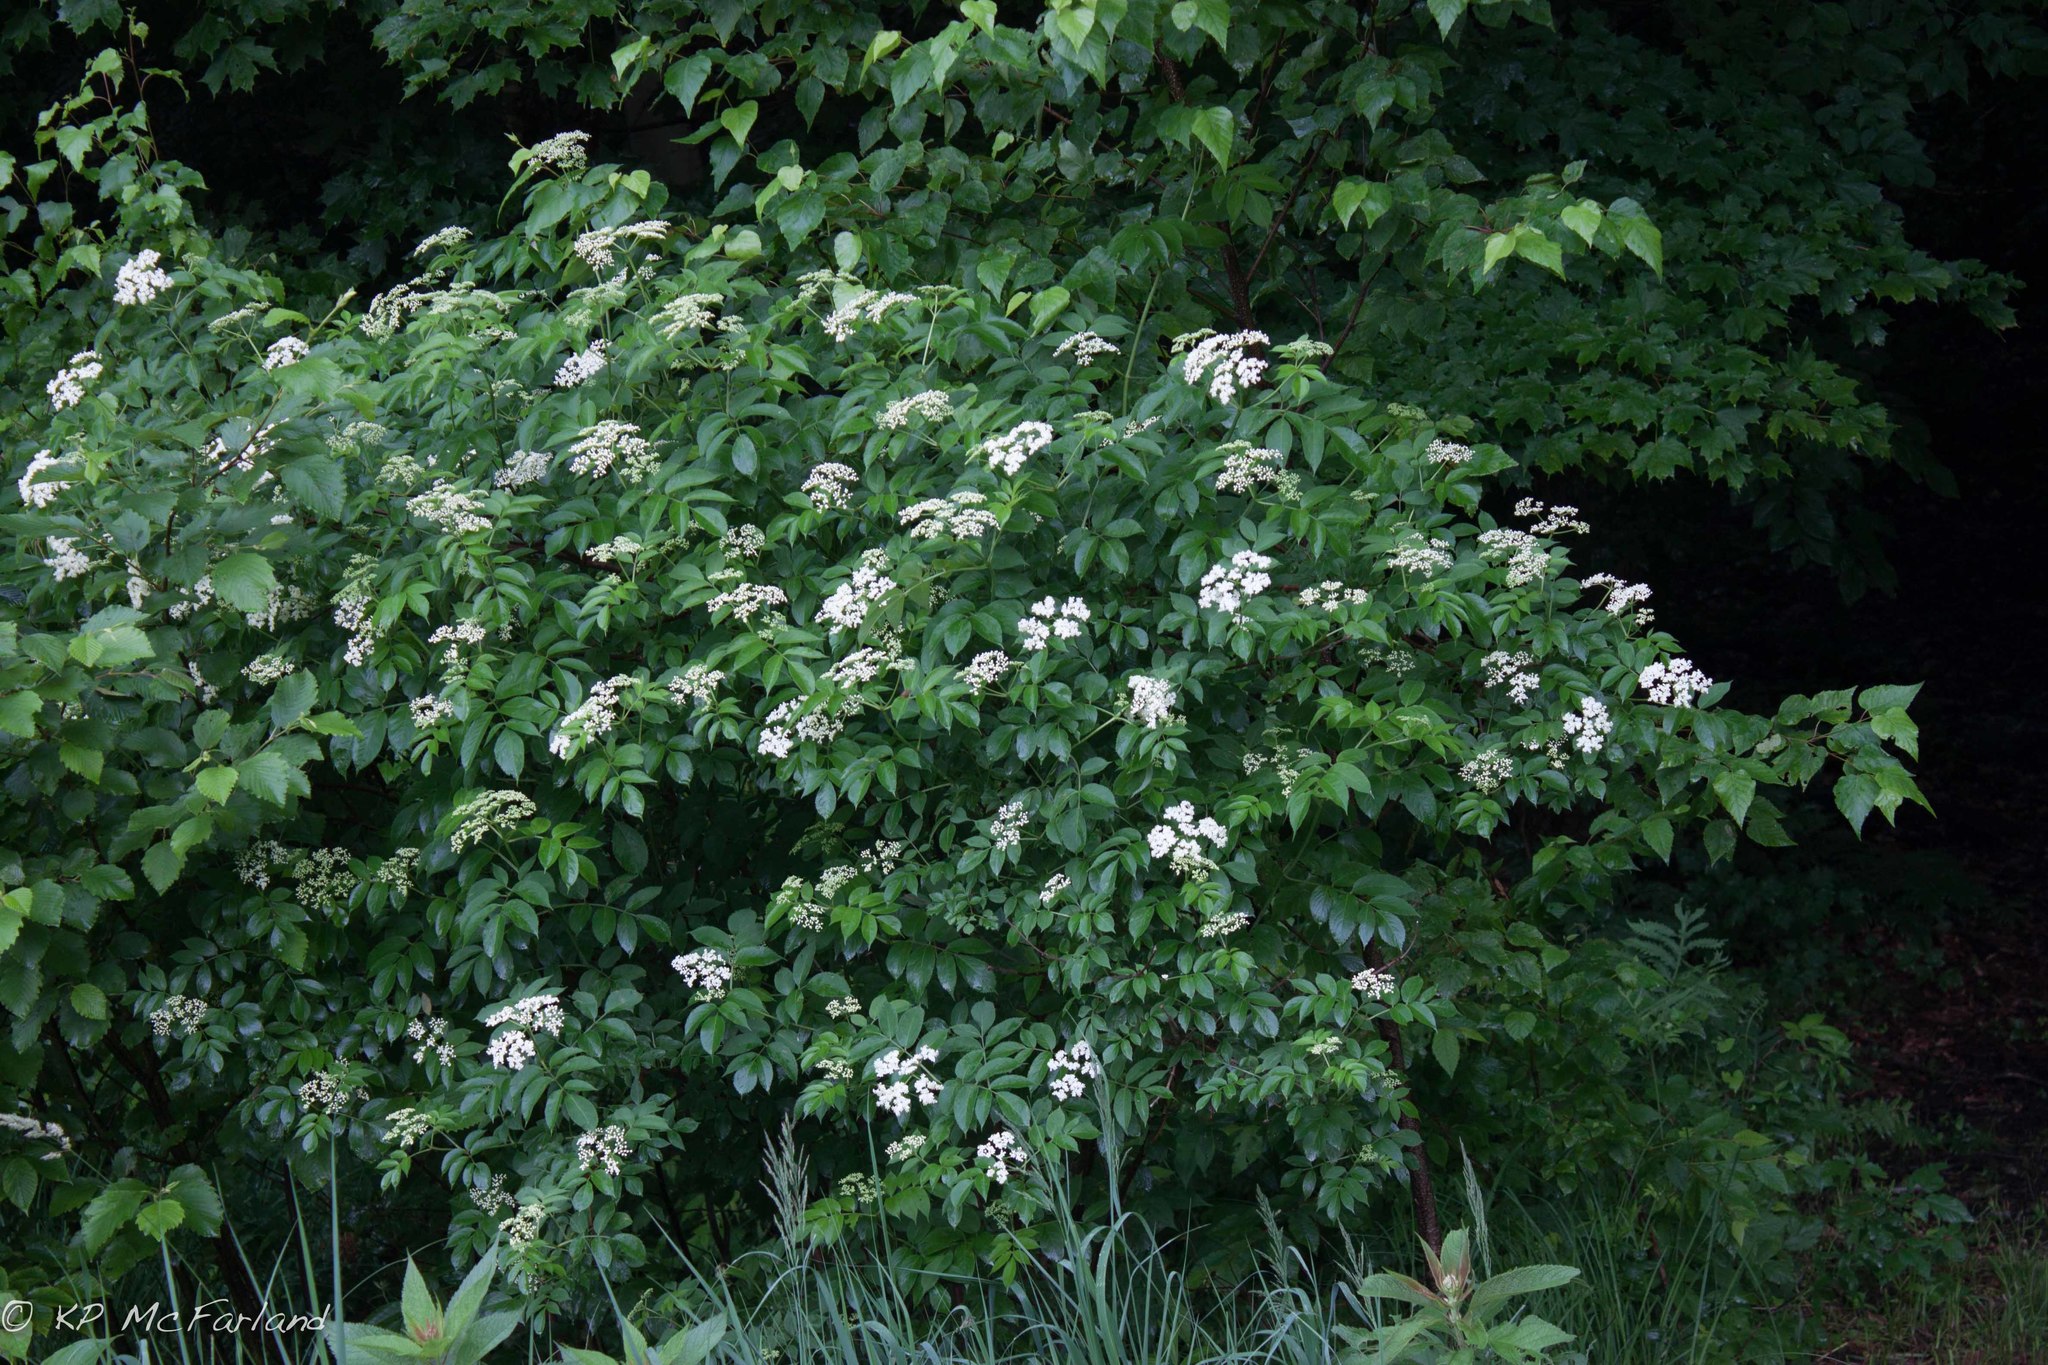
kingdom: Plantae
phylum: Tracheophyta
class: Magnoliopsida
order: Dipsacales
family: Viburnaceae
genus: Sambucus
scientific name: Sambucus canadensis
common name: American elder
